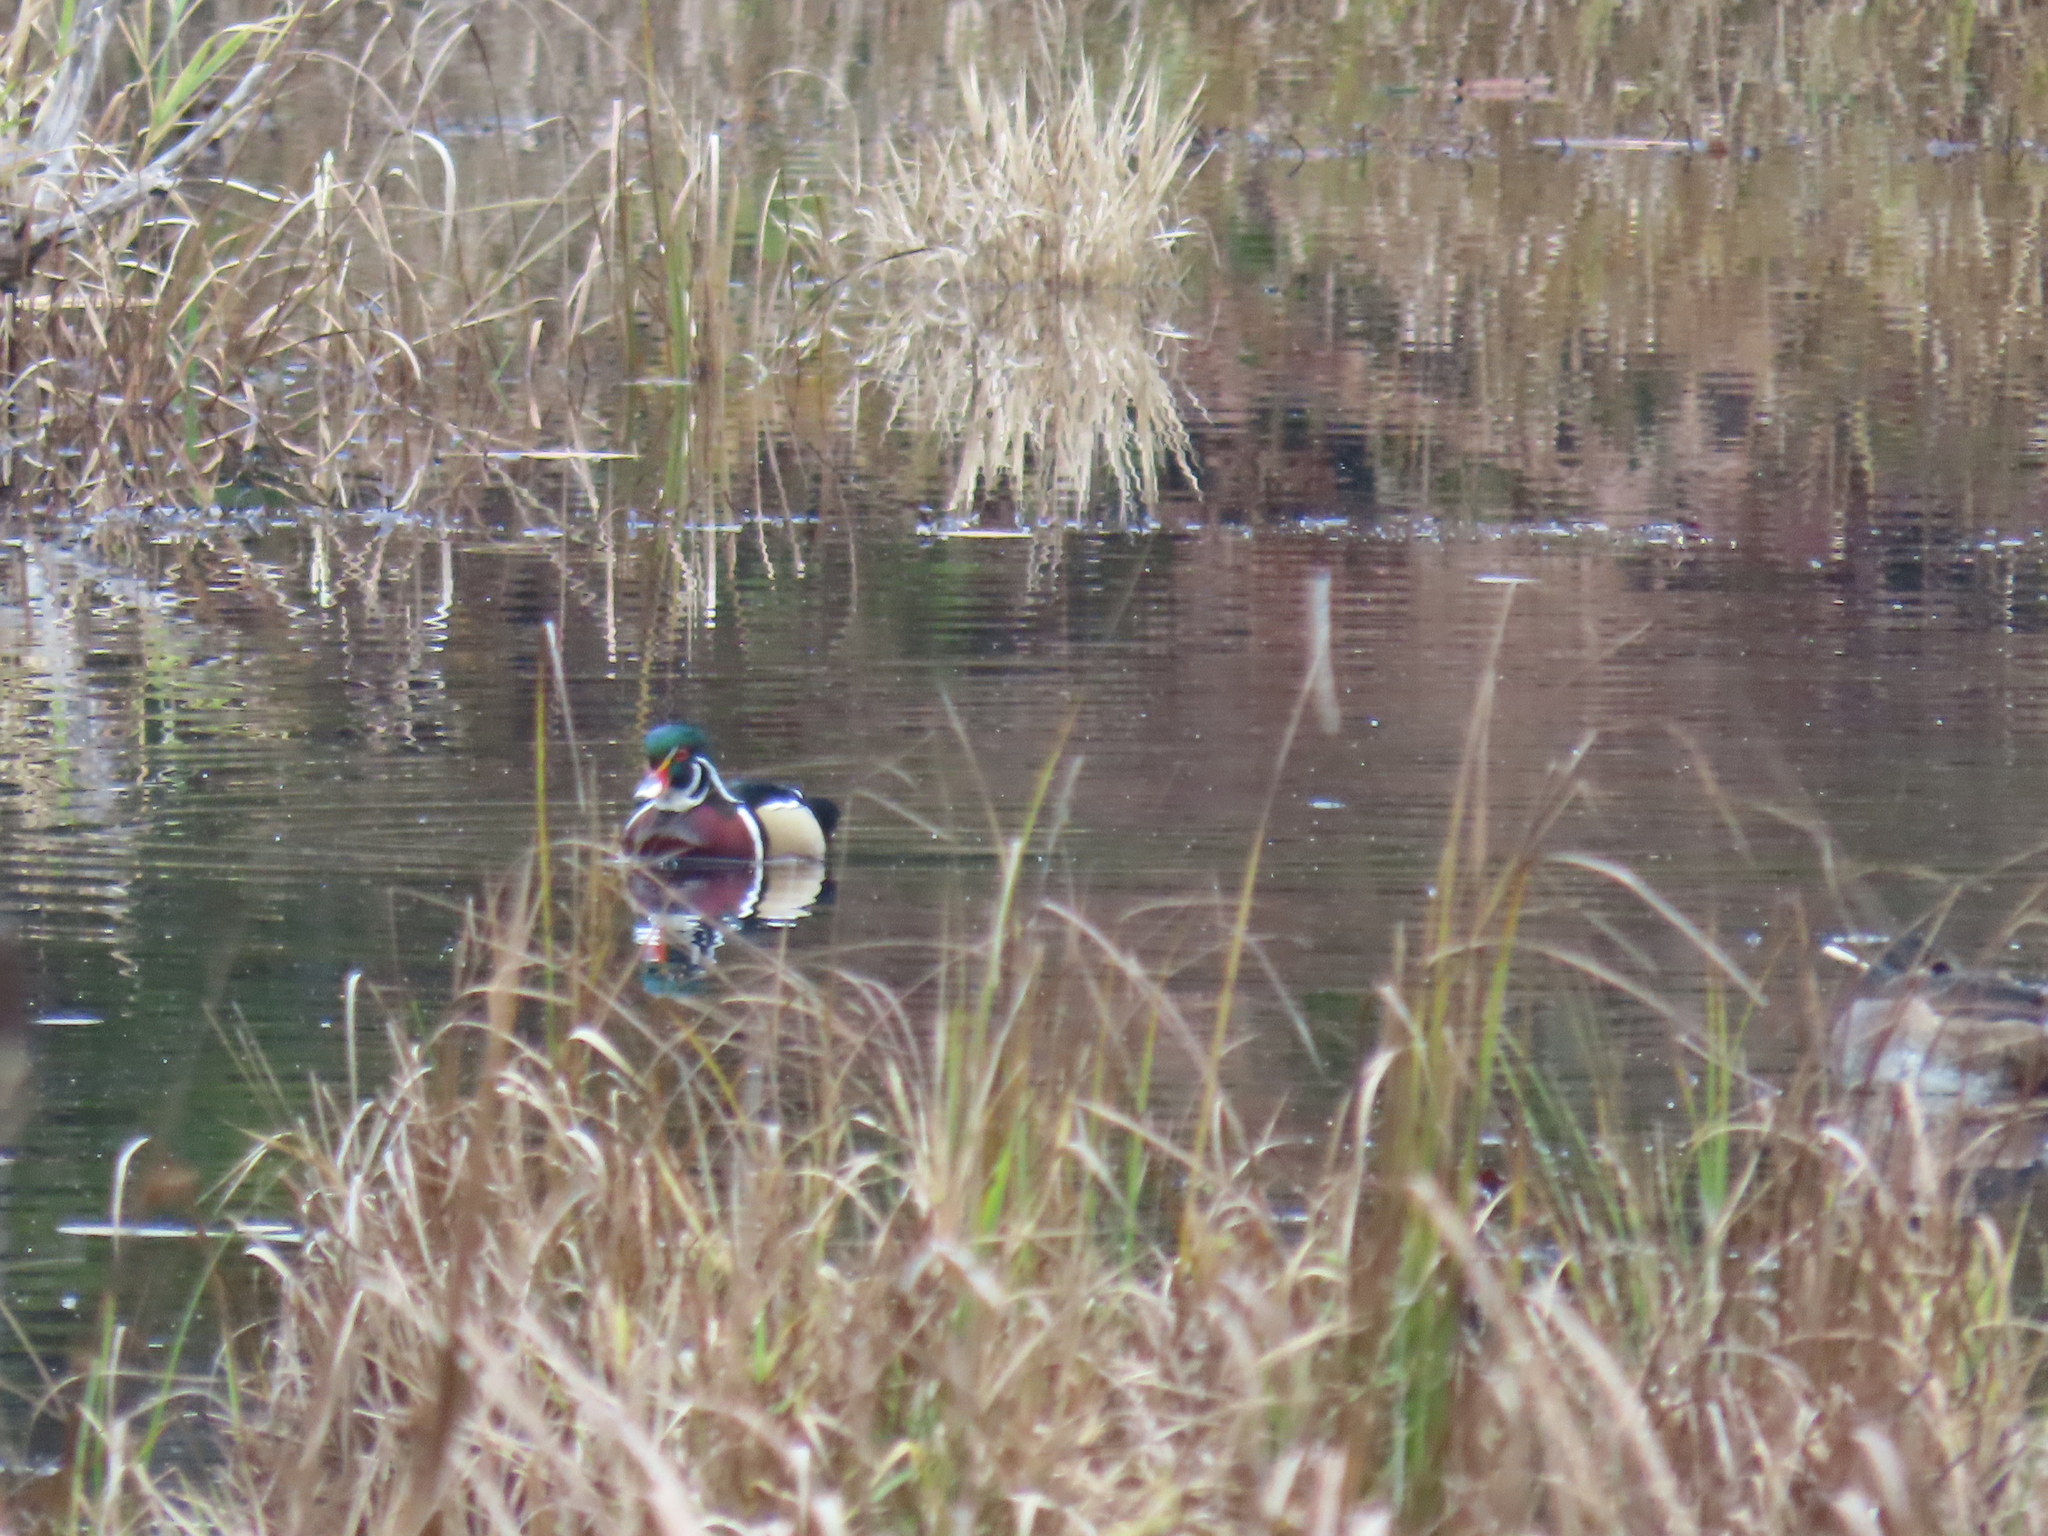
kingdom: Animalia
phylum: Chordata
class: Aves
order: Anseriformes
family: Anatidae
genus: Aix
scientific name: Aix sponsa
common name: Wood duck
